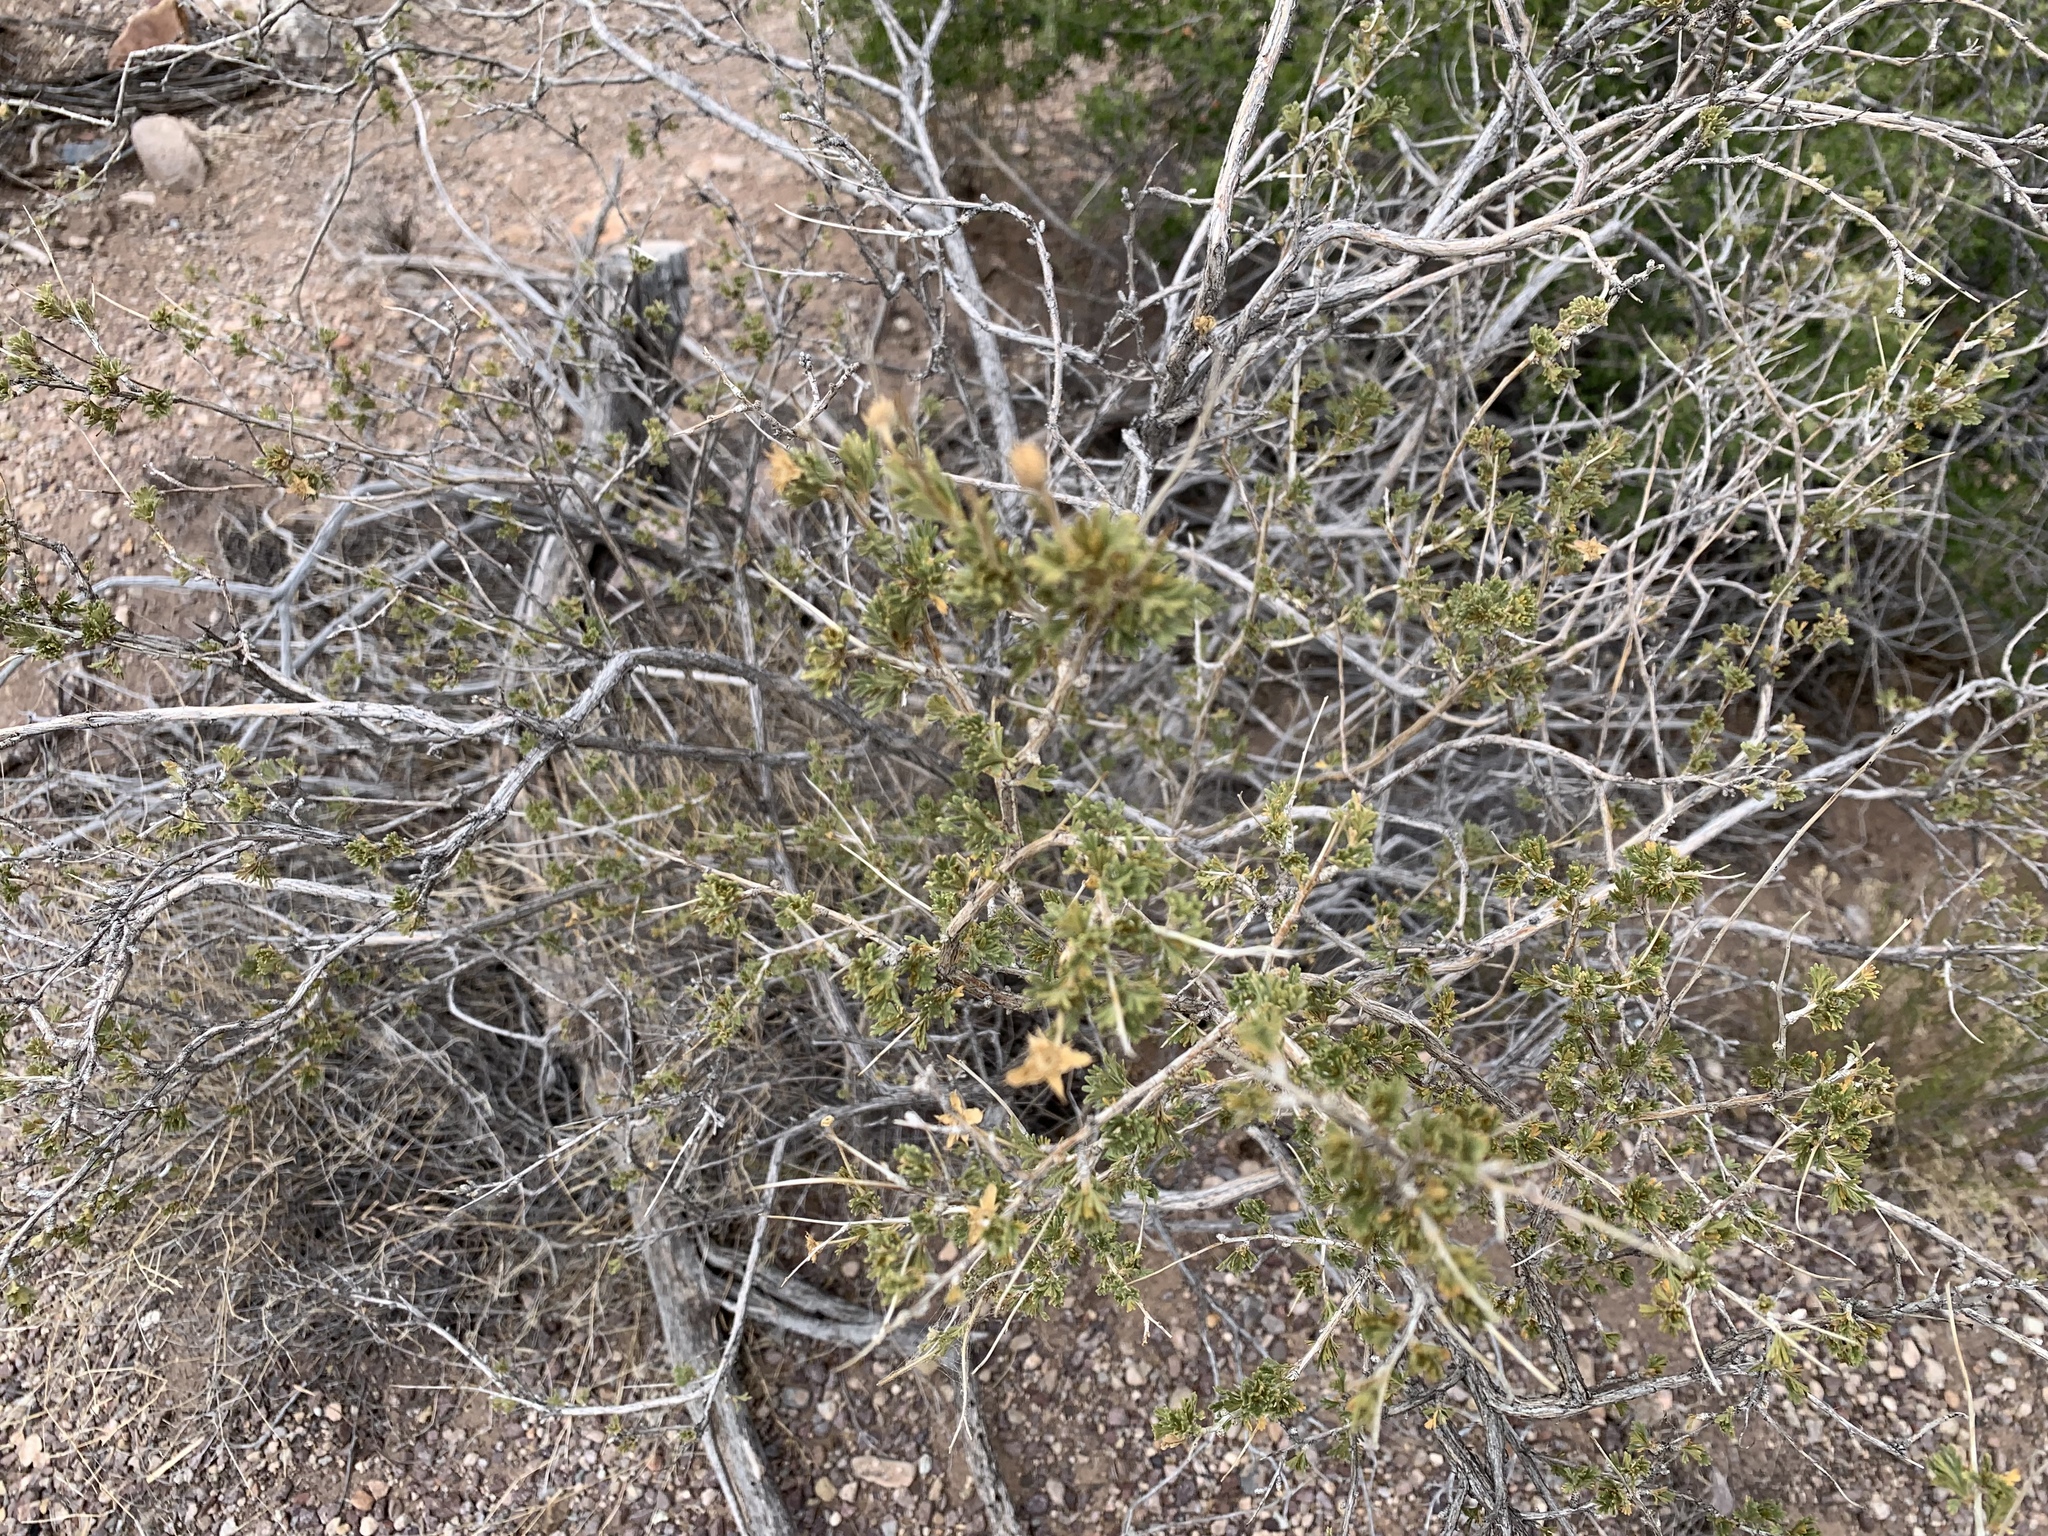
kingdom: Plantae
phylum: Tracheophyta
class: Magnoliopsida
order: Rosales
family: Rosaceae
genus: Fallugia
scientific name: Fallugia paradoxa
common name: Apache-plume
